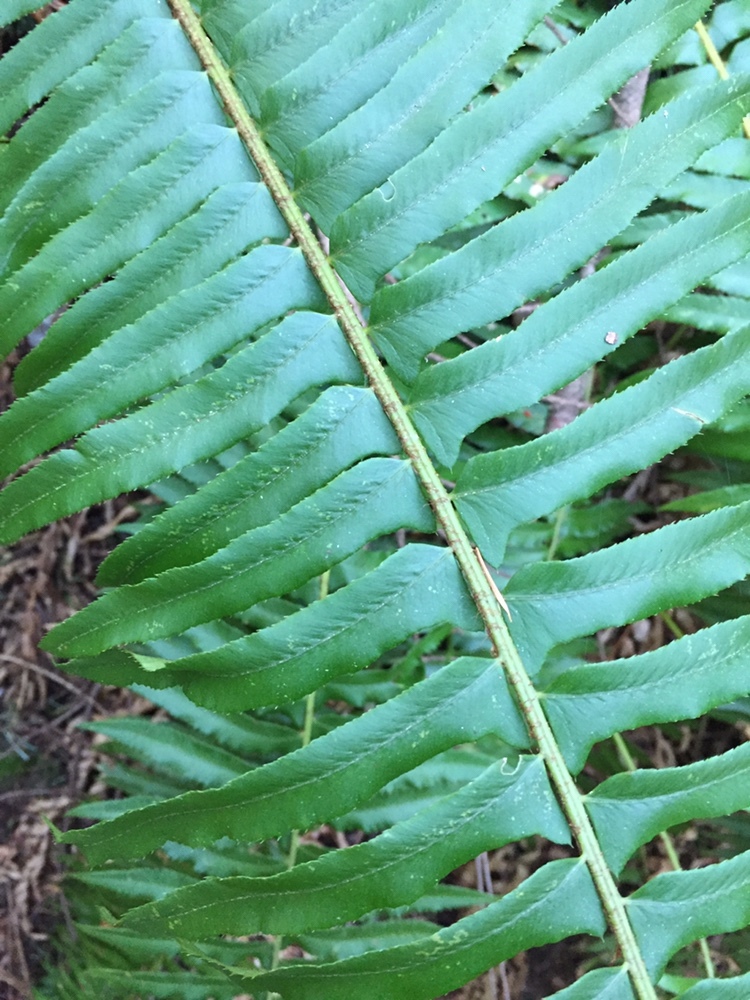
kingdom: Plantae
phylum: Tracheophyta
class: Polypodiopsida
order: Polypodiales
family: Dryopteridaceae
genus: Polystichum
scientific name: Polystichum munitum
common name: Western sword-fern
